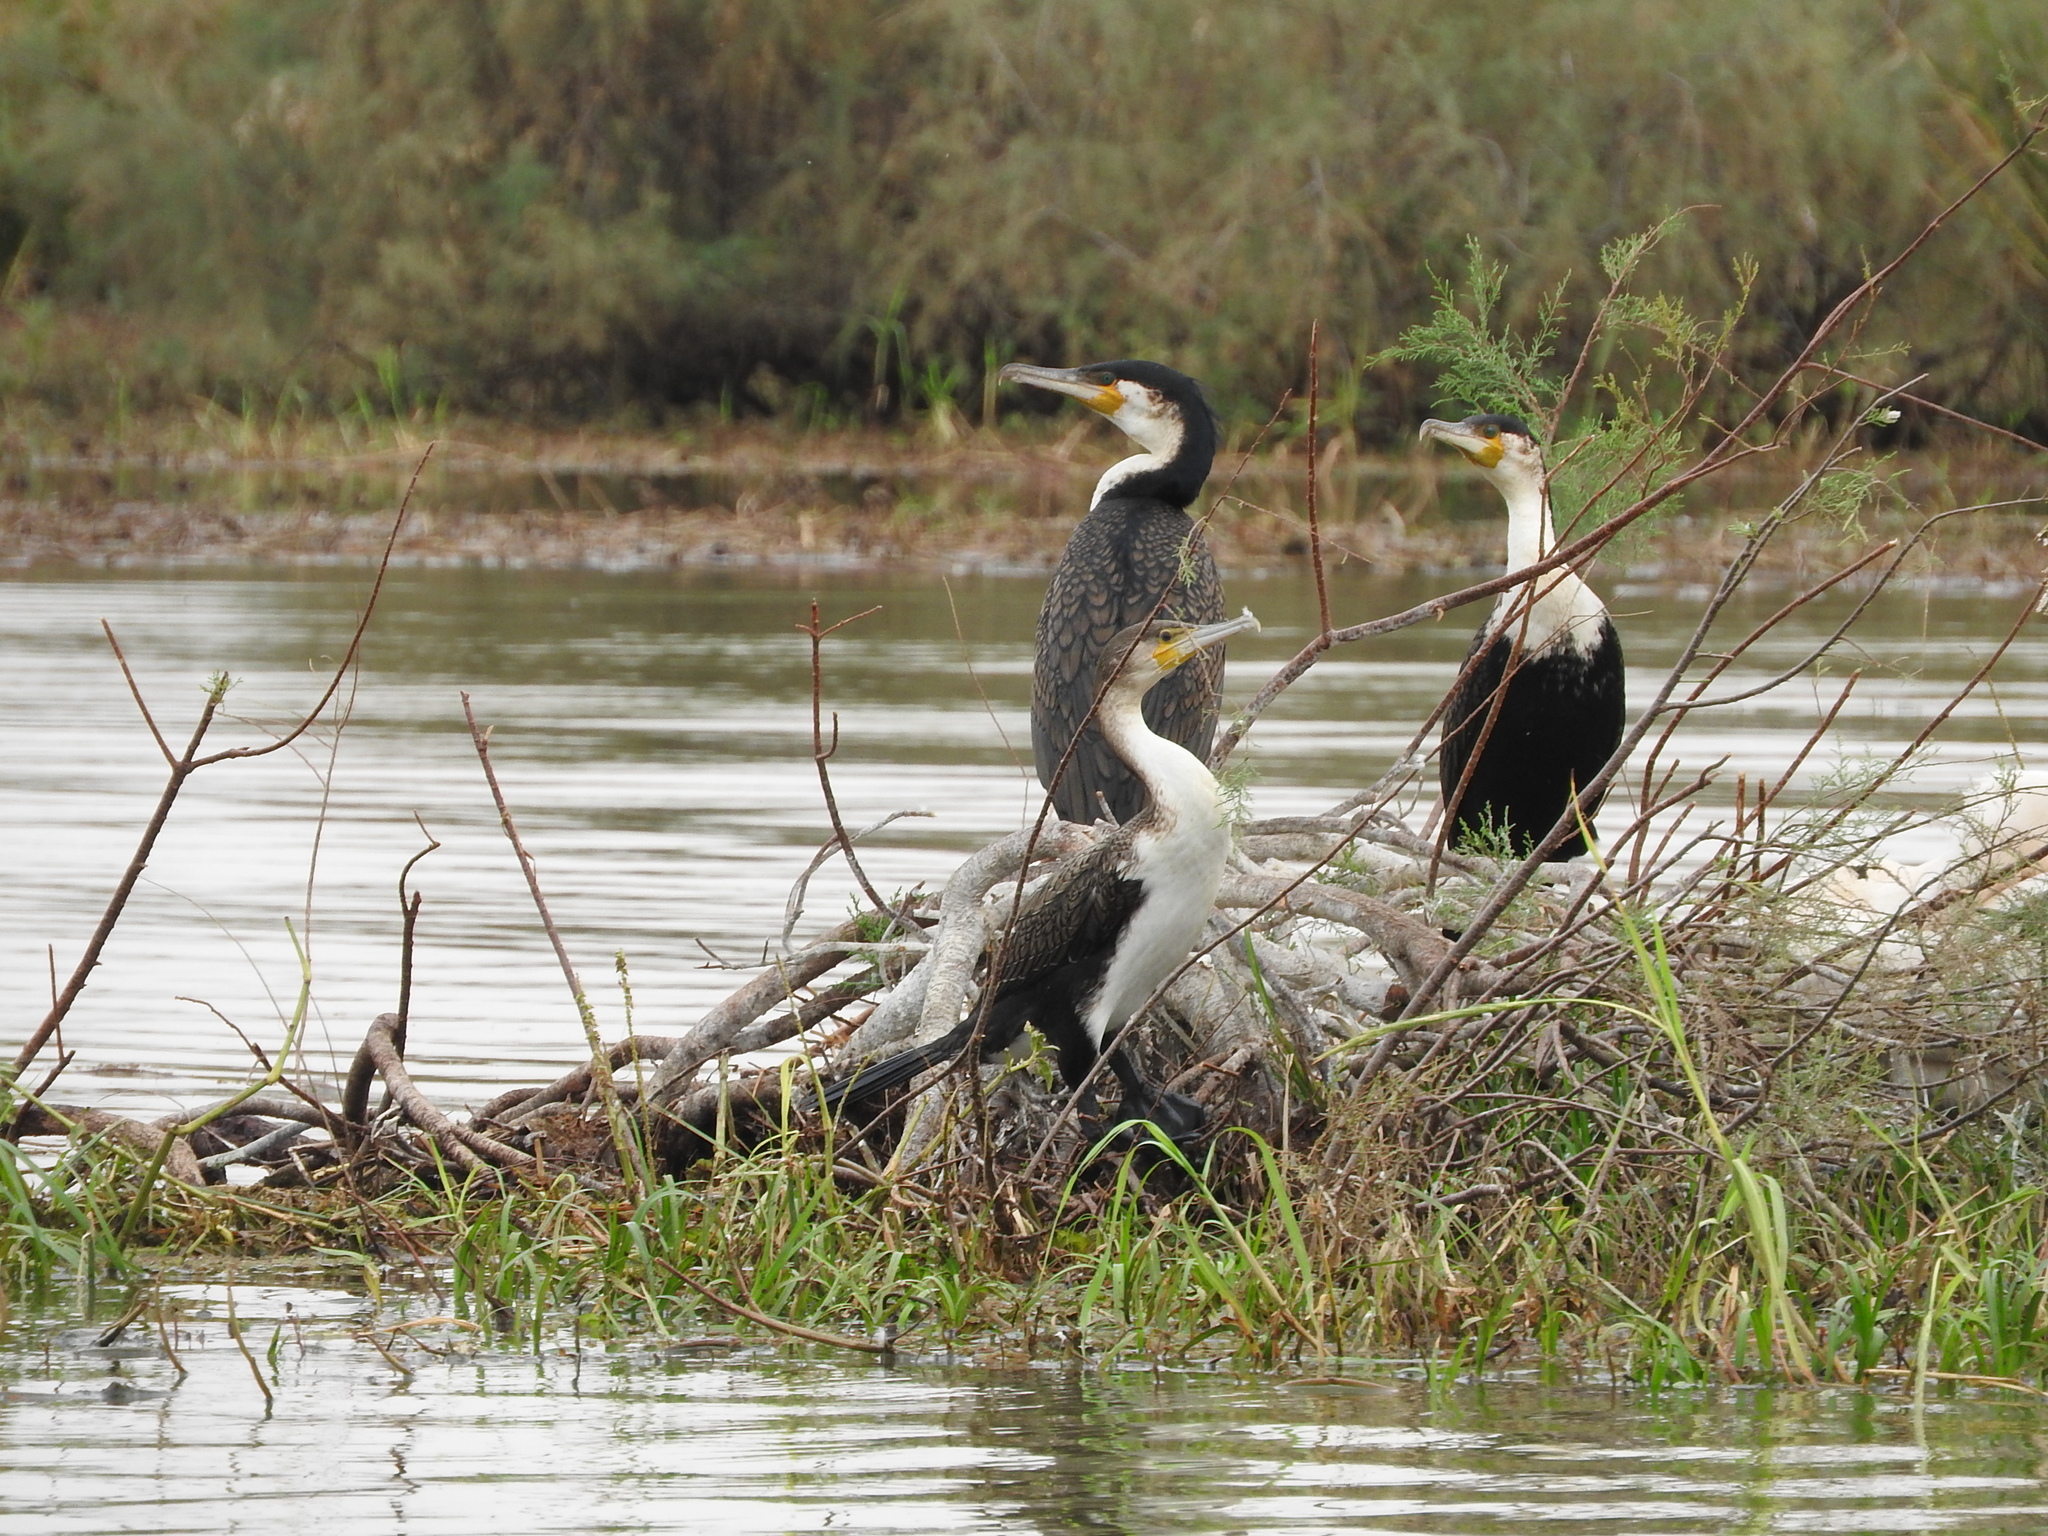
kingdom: Animalia
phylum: Chordata
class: Aves
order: Suliformes
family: Phalacrocoracidae
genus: Phalacrocorax
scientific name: Phalacrocorax carbo
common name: Great cormorant
